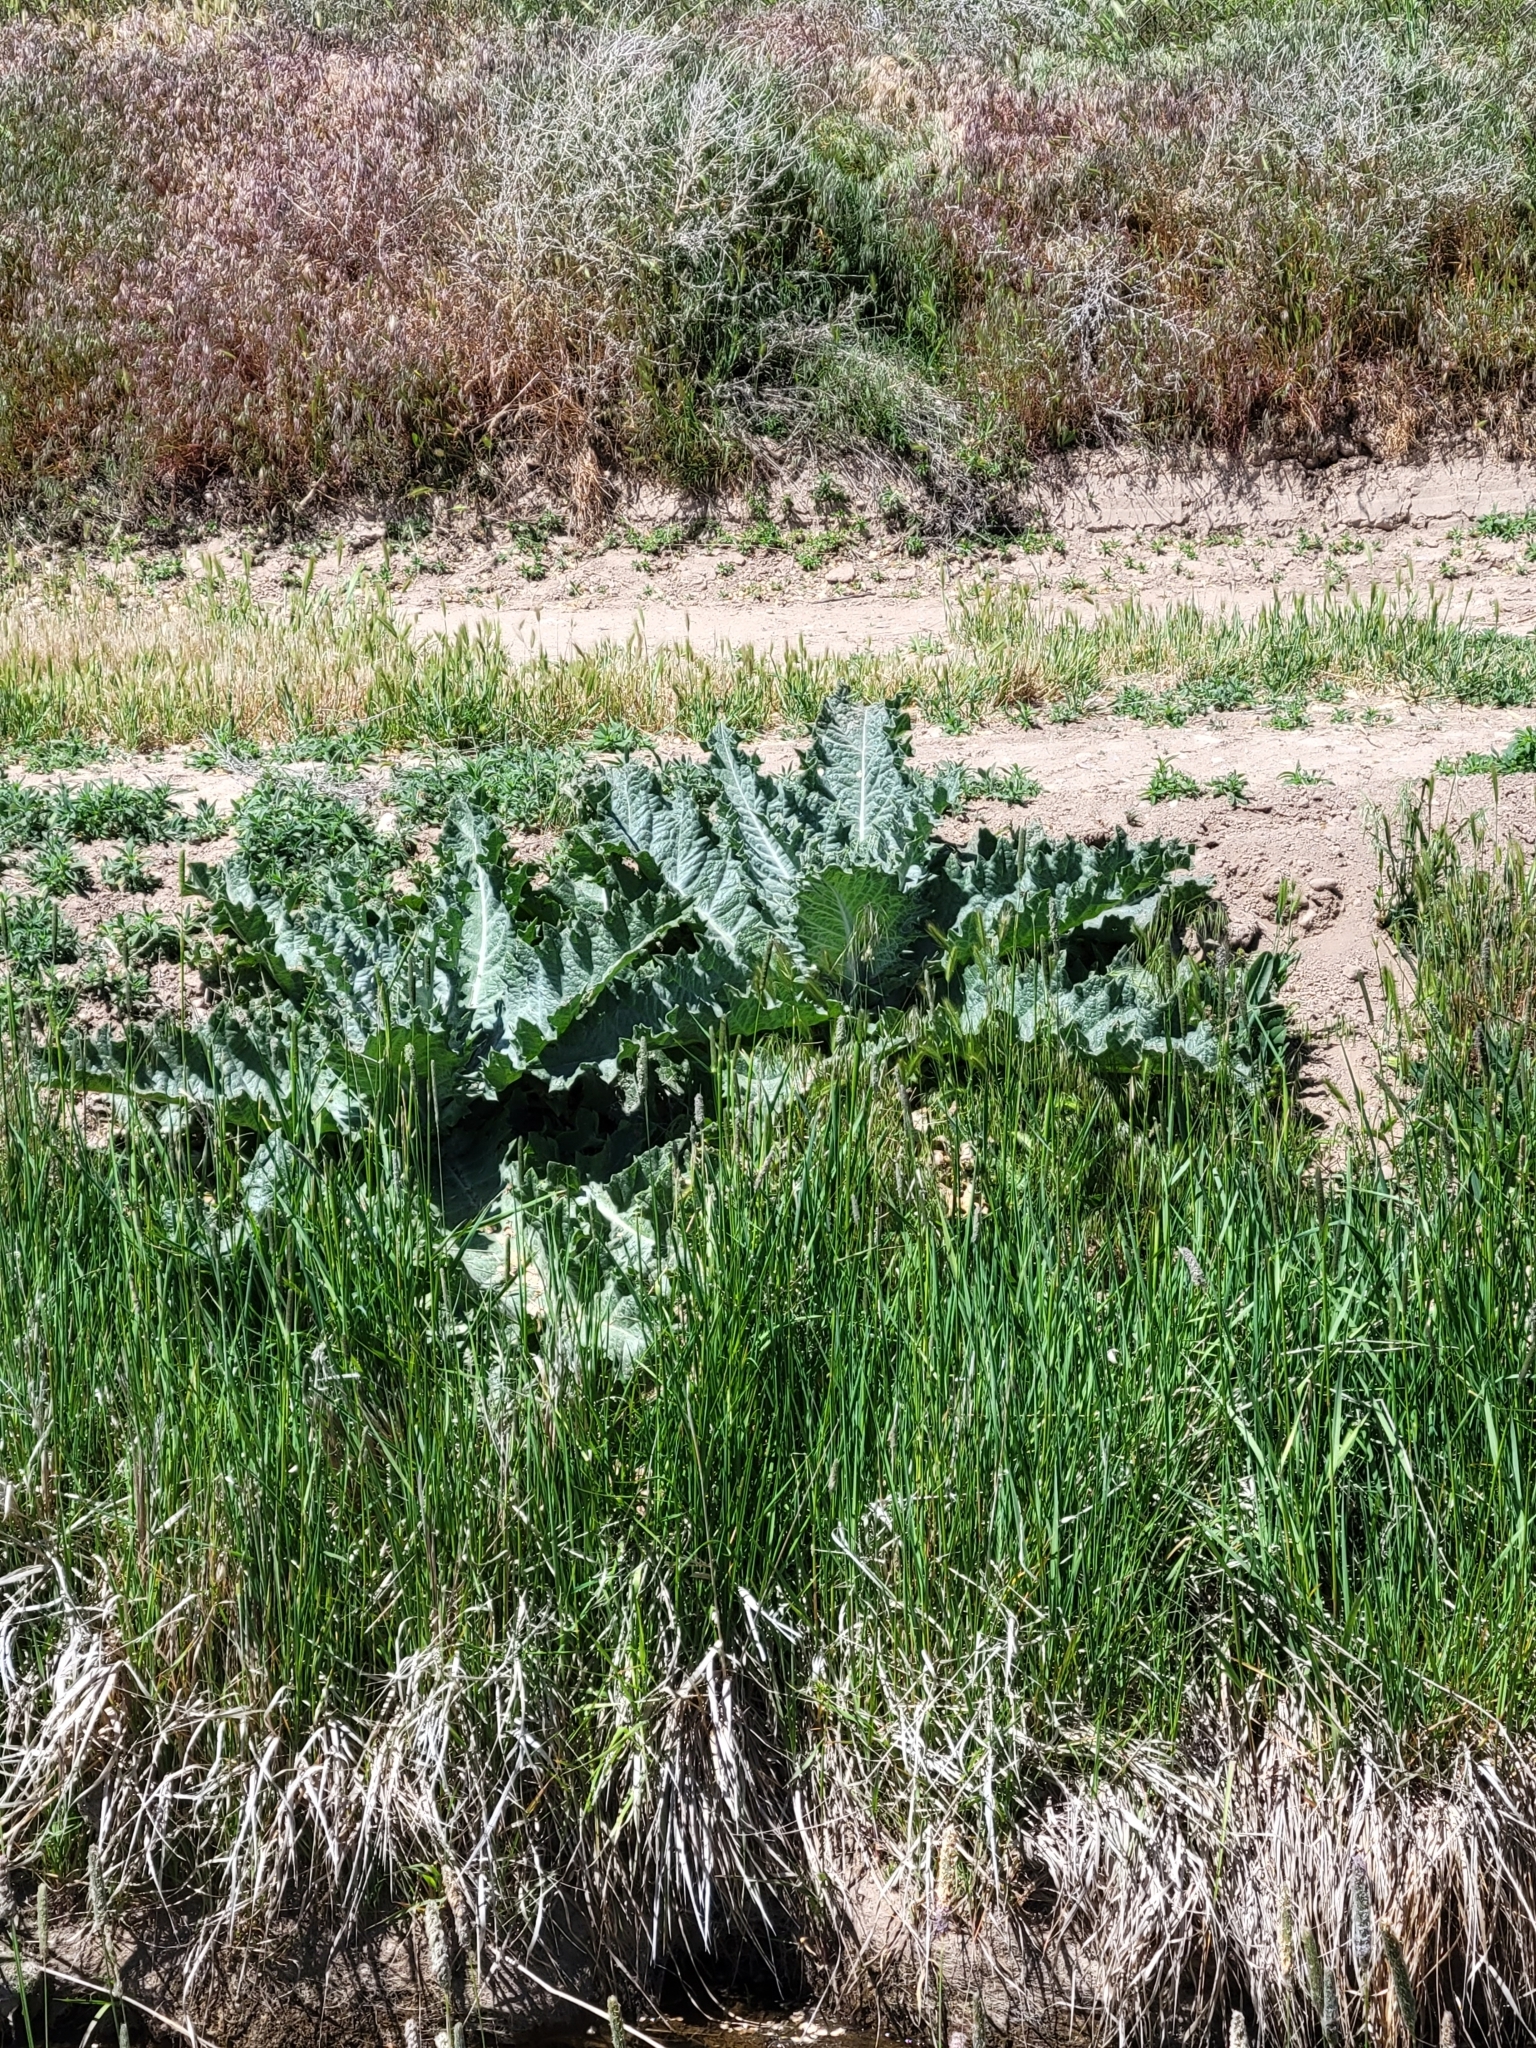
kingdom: Plantae
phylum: Tracheophyta
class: Magnoliopsida
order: Asterales
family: Asteraceae
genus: Onopordum
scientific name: Onopordum acanthium
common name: Scotch thistle
